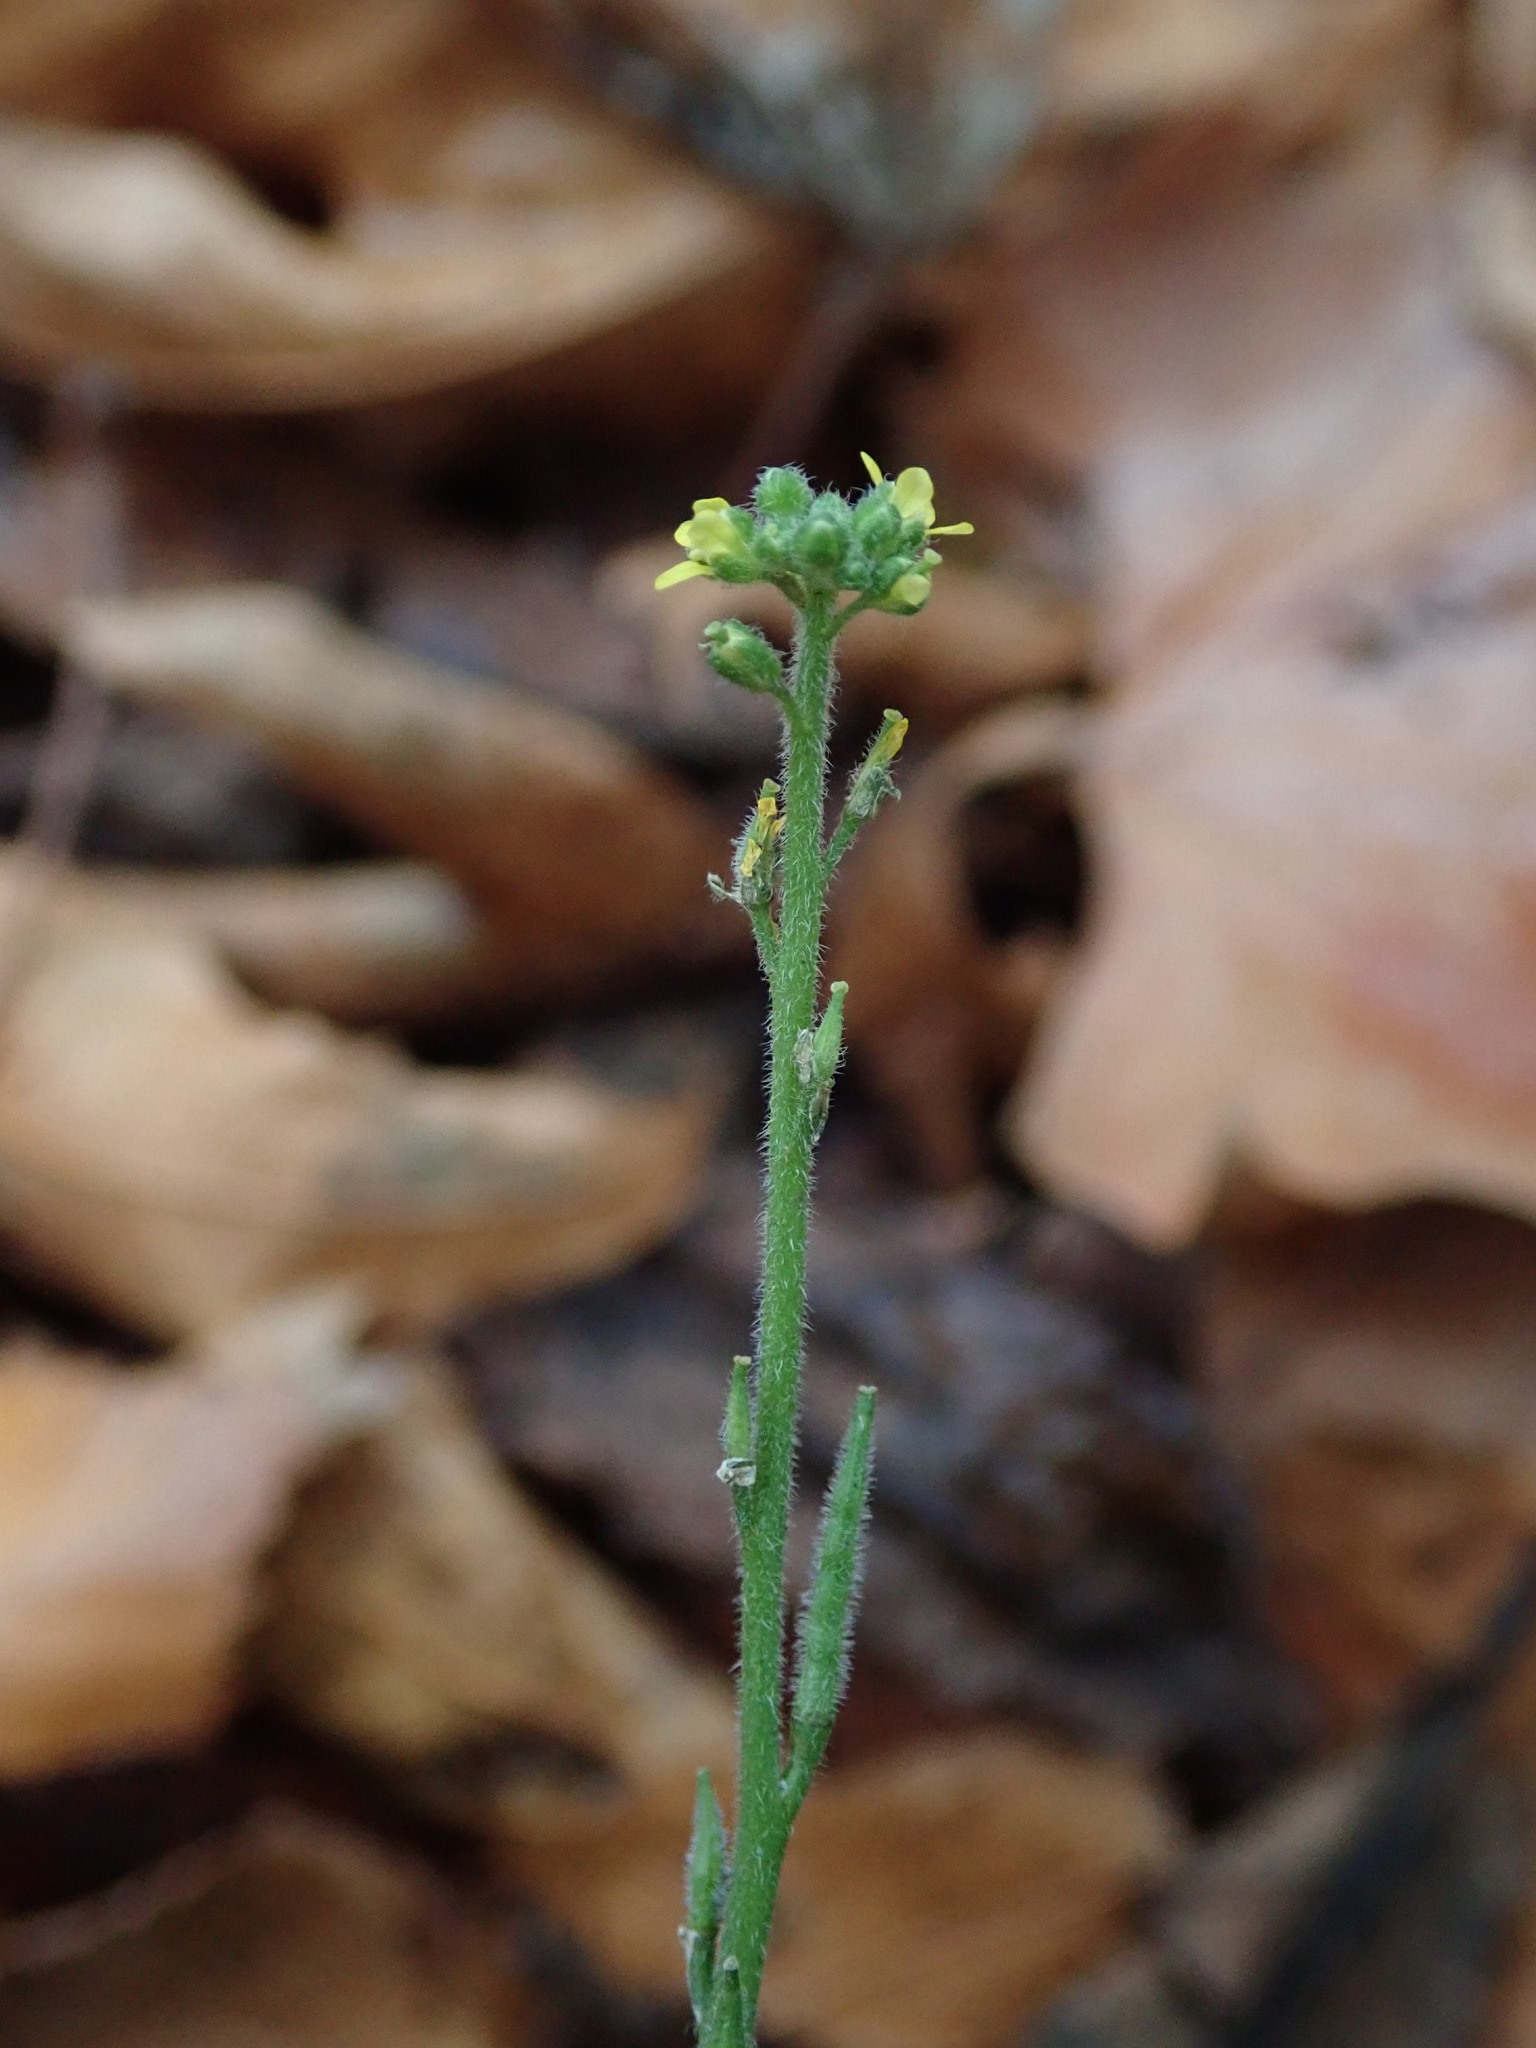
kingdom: Plantae
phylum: Tracheophyta
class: Magnoliopsida
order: Brassicales
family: Brassicaceae
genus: Sisymbrium
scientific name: Sisymbrium officinale
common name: Hedge mustard
